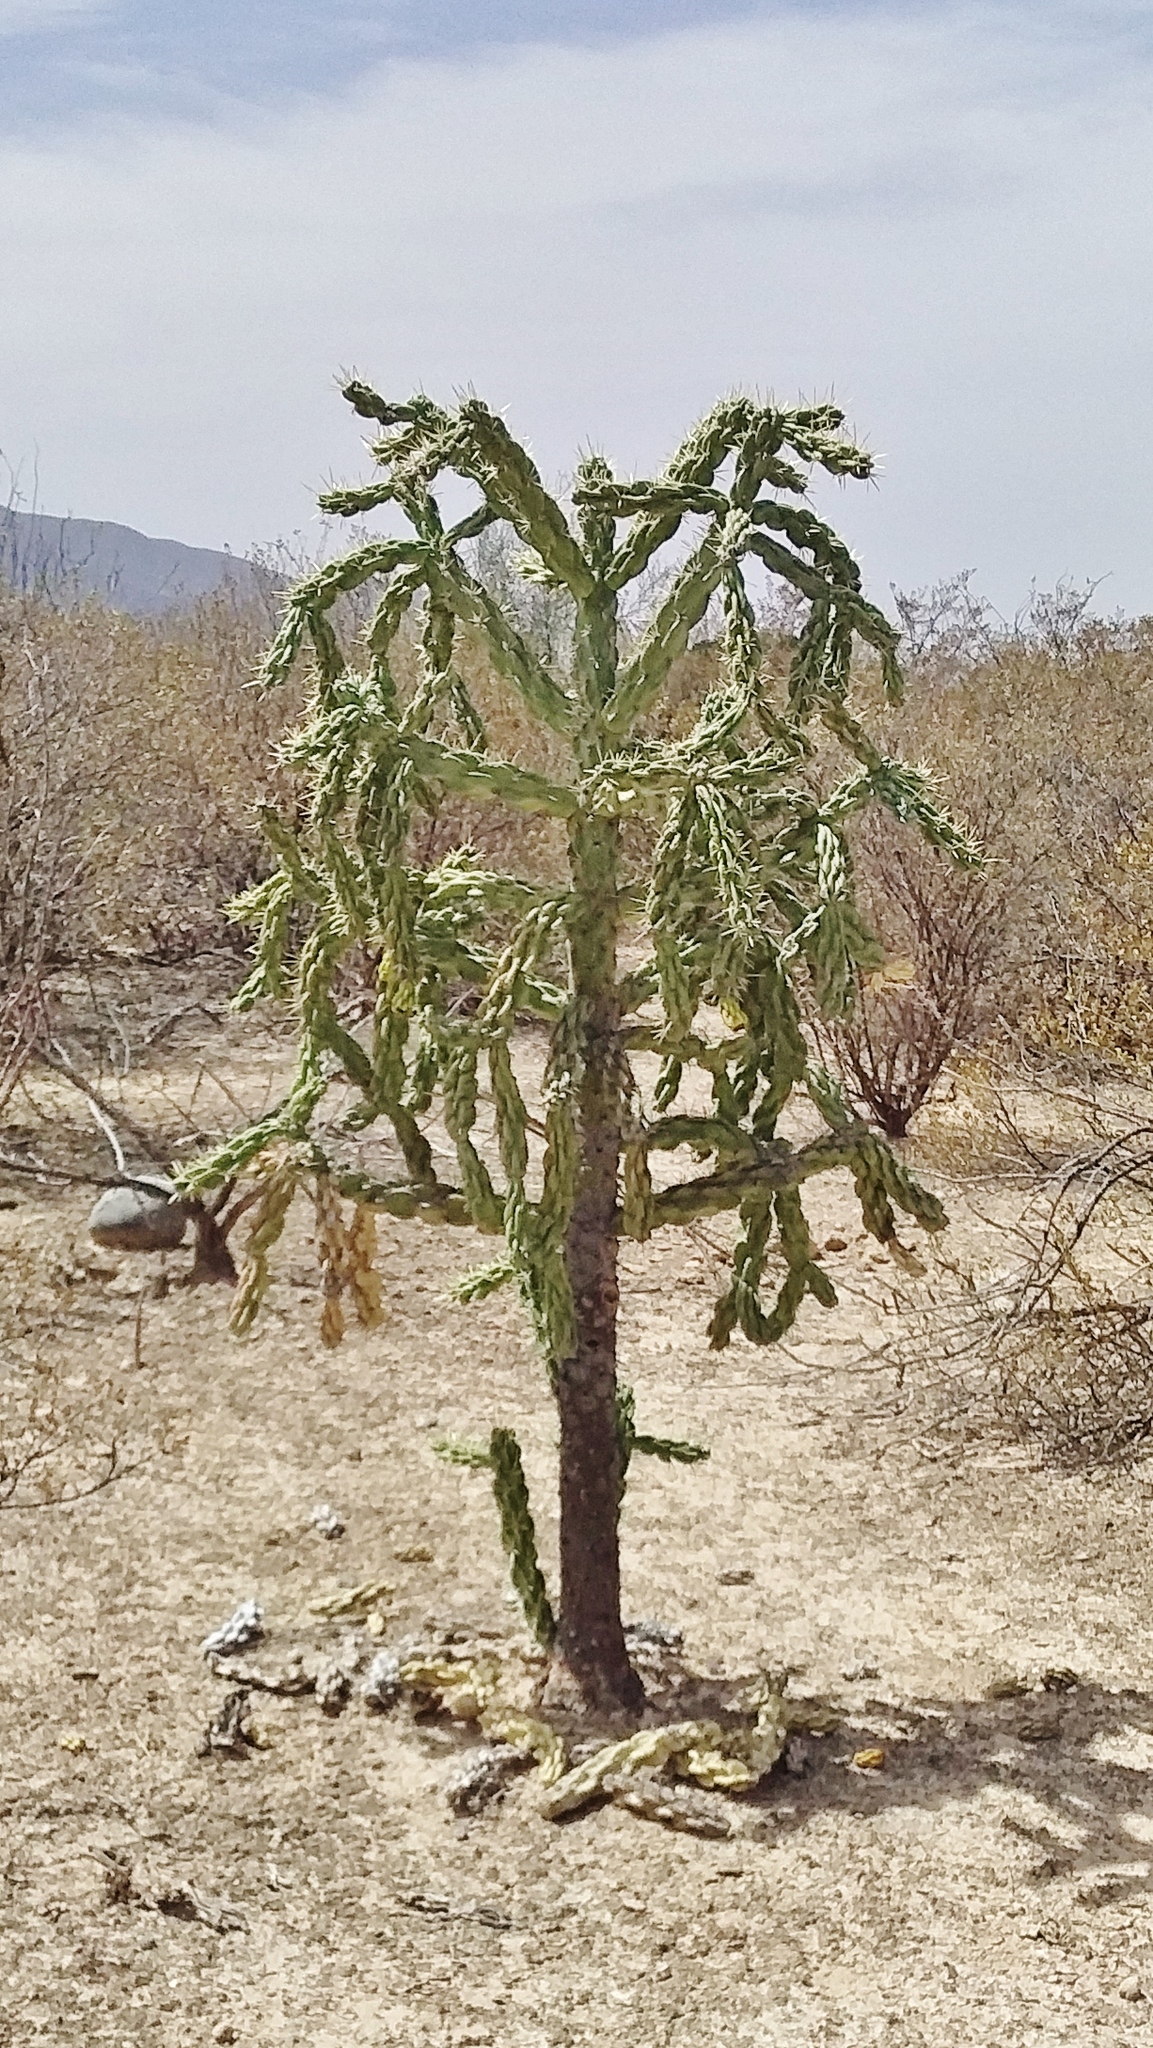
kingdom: Plantae
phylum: Tracheophyta
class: Magnoliopsida
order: Caryophyllales
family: Cactaceae
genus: Cylindropuntia
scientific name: Cylindropuntia imbricata
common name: Candelabrum cactus
